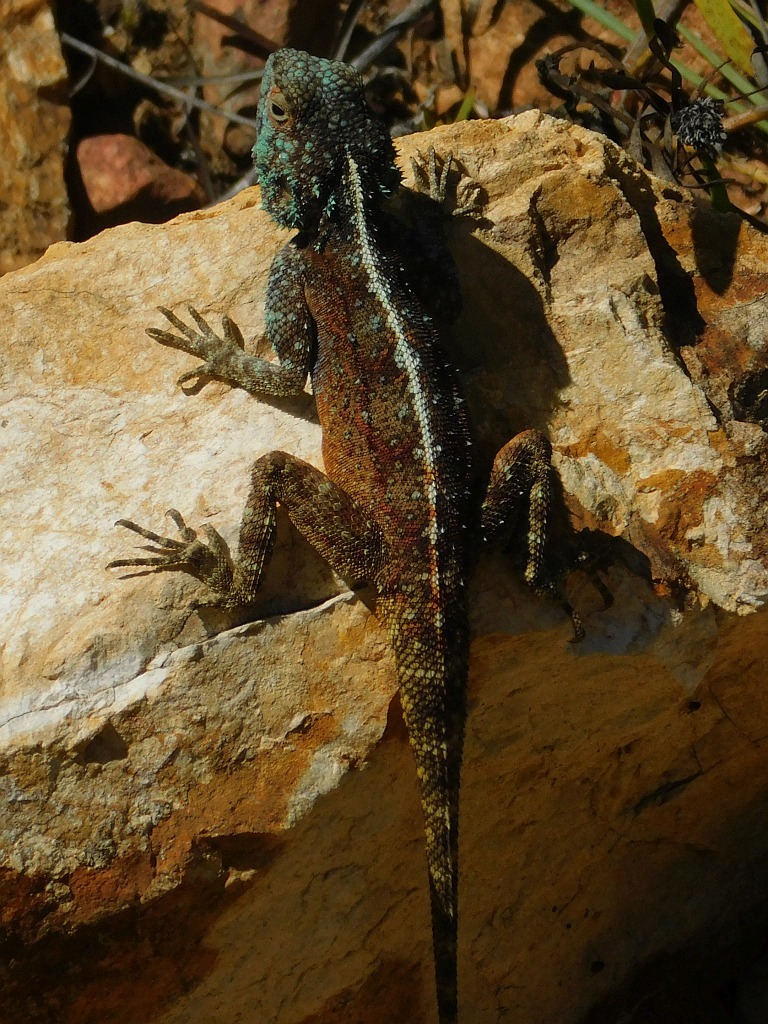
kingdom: Animalia
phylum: Chordata
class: Squamata
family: Agamidae
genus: Agama
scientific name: Agama atra
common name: Southern african rock agama
